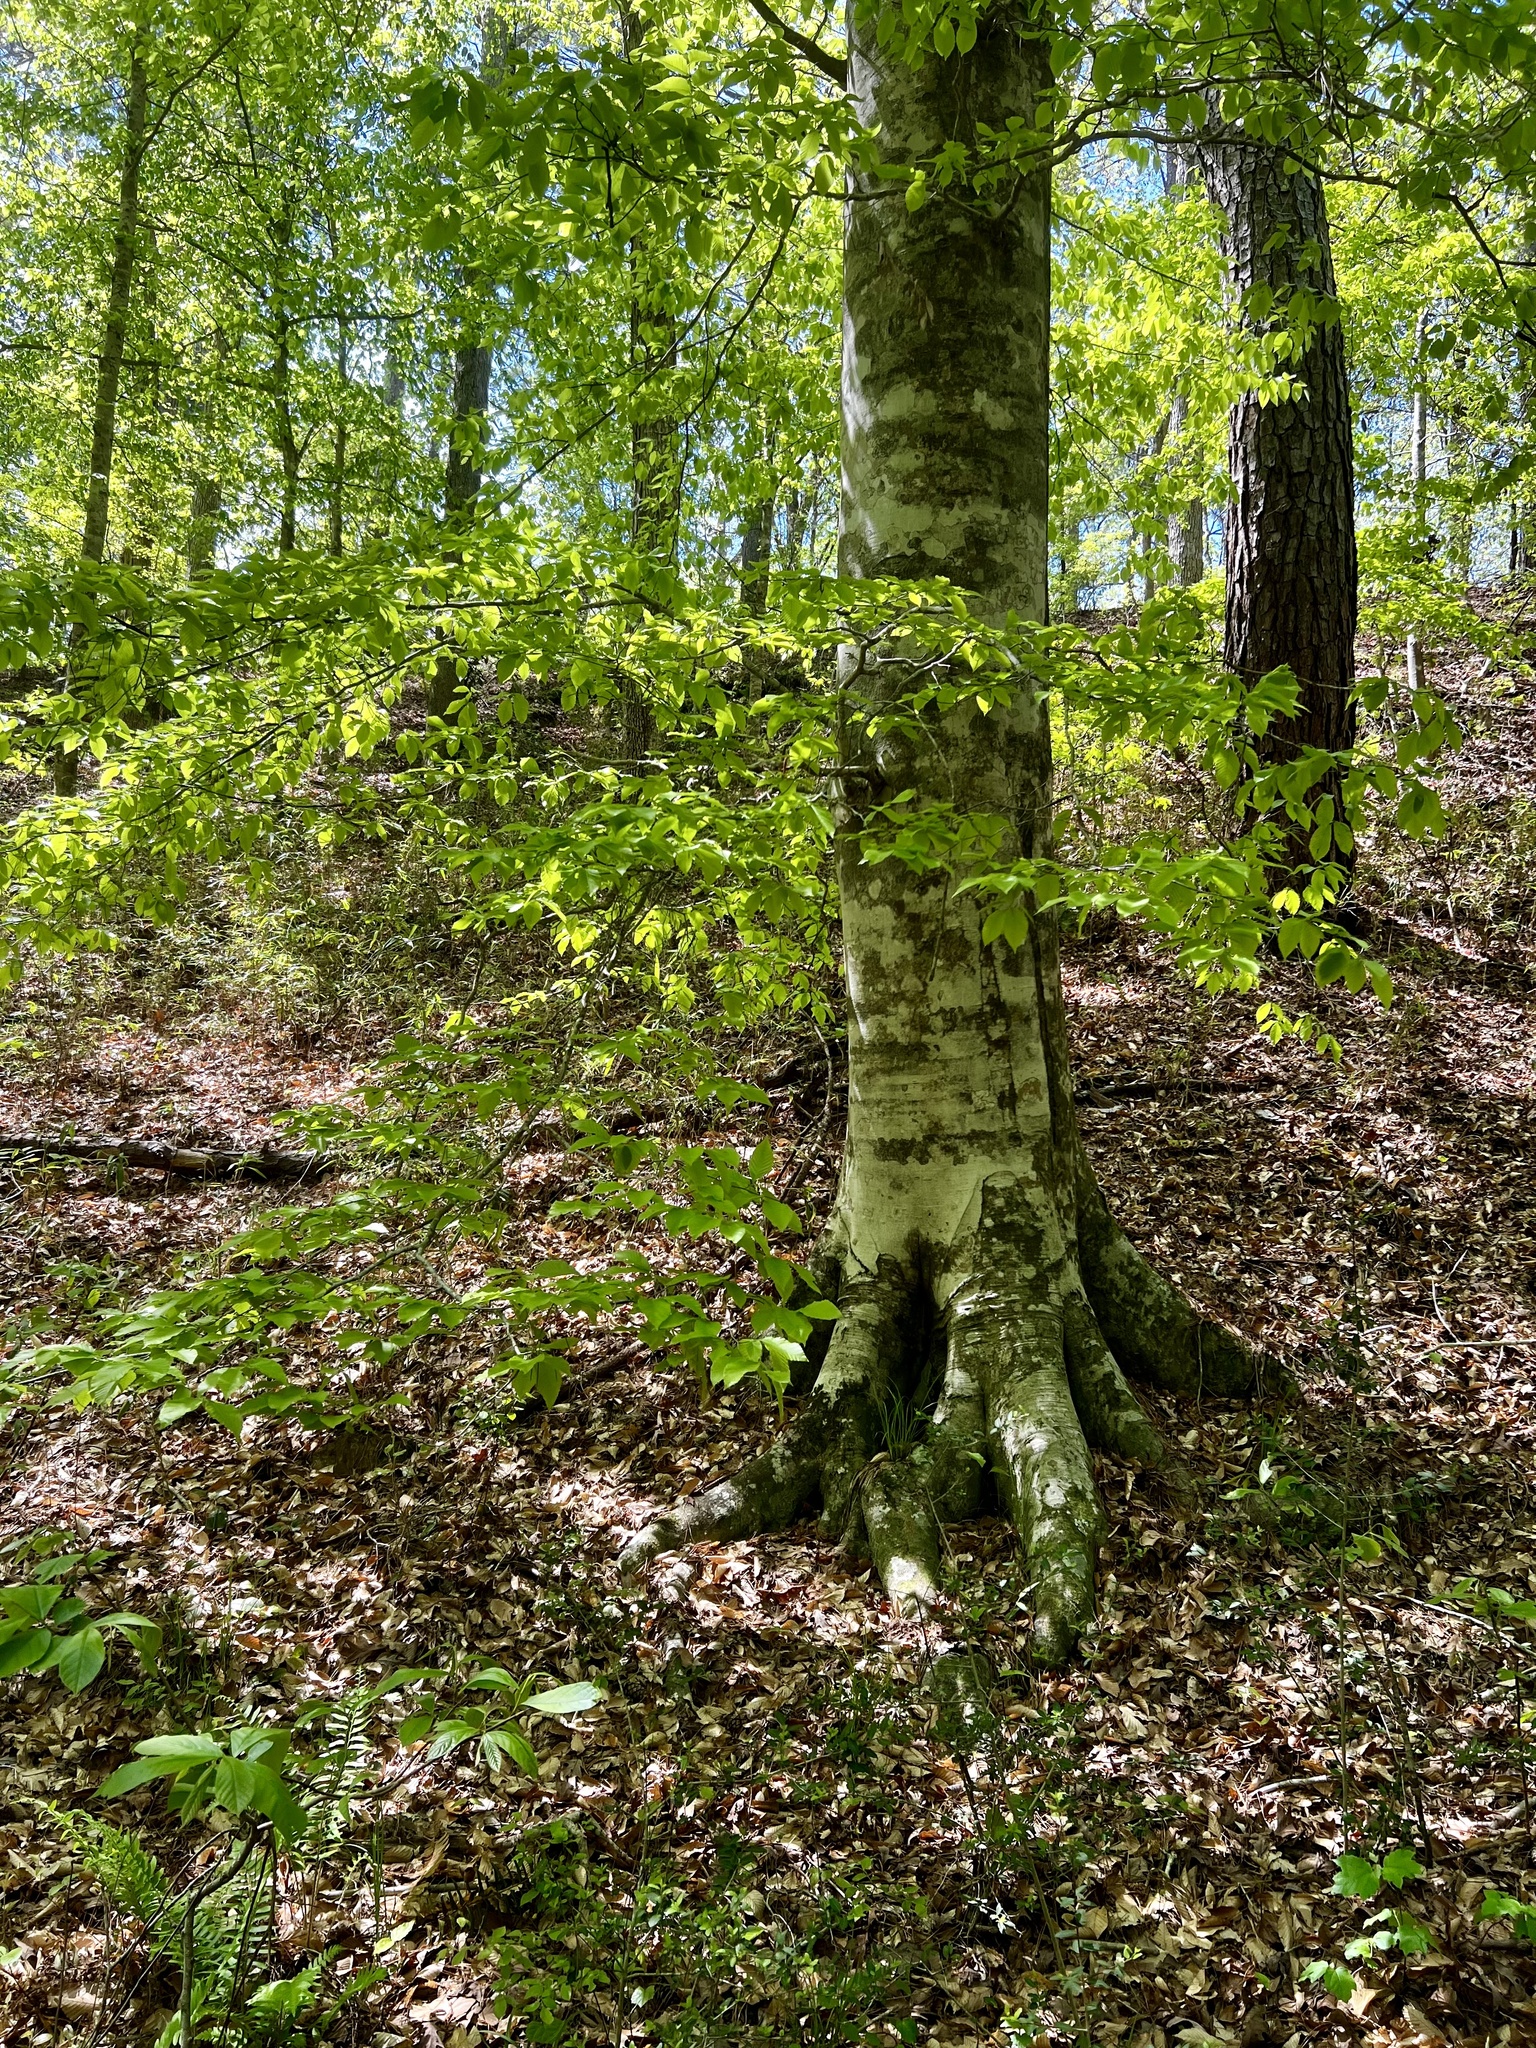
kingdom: Plantae
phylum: Tracheophyta
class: Magnoliopsida
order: Fagales
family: Fagaceae
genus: Fagus
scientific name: Fagus grandifolia
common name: American beech
